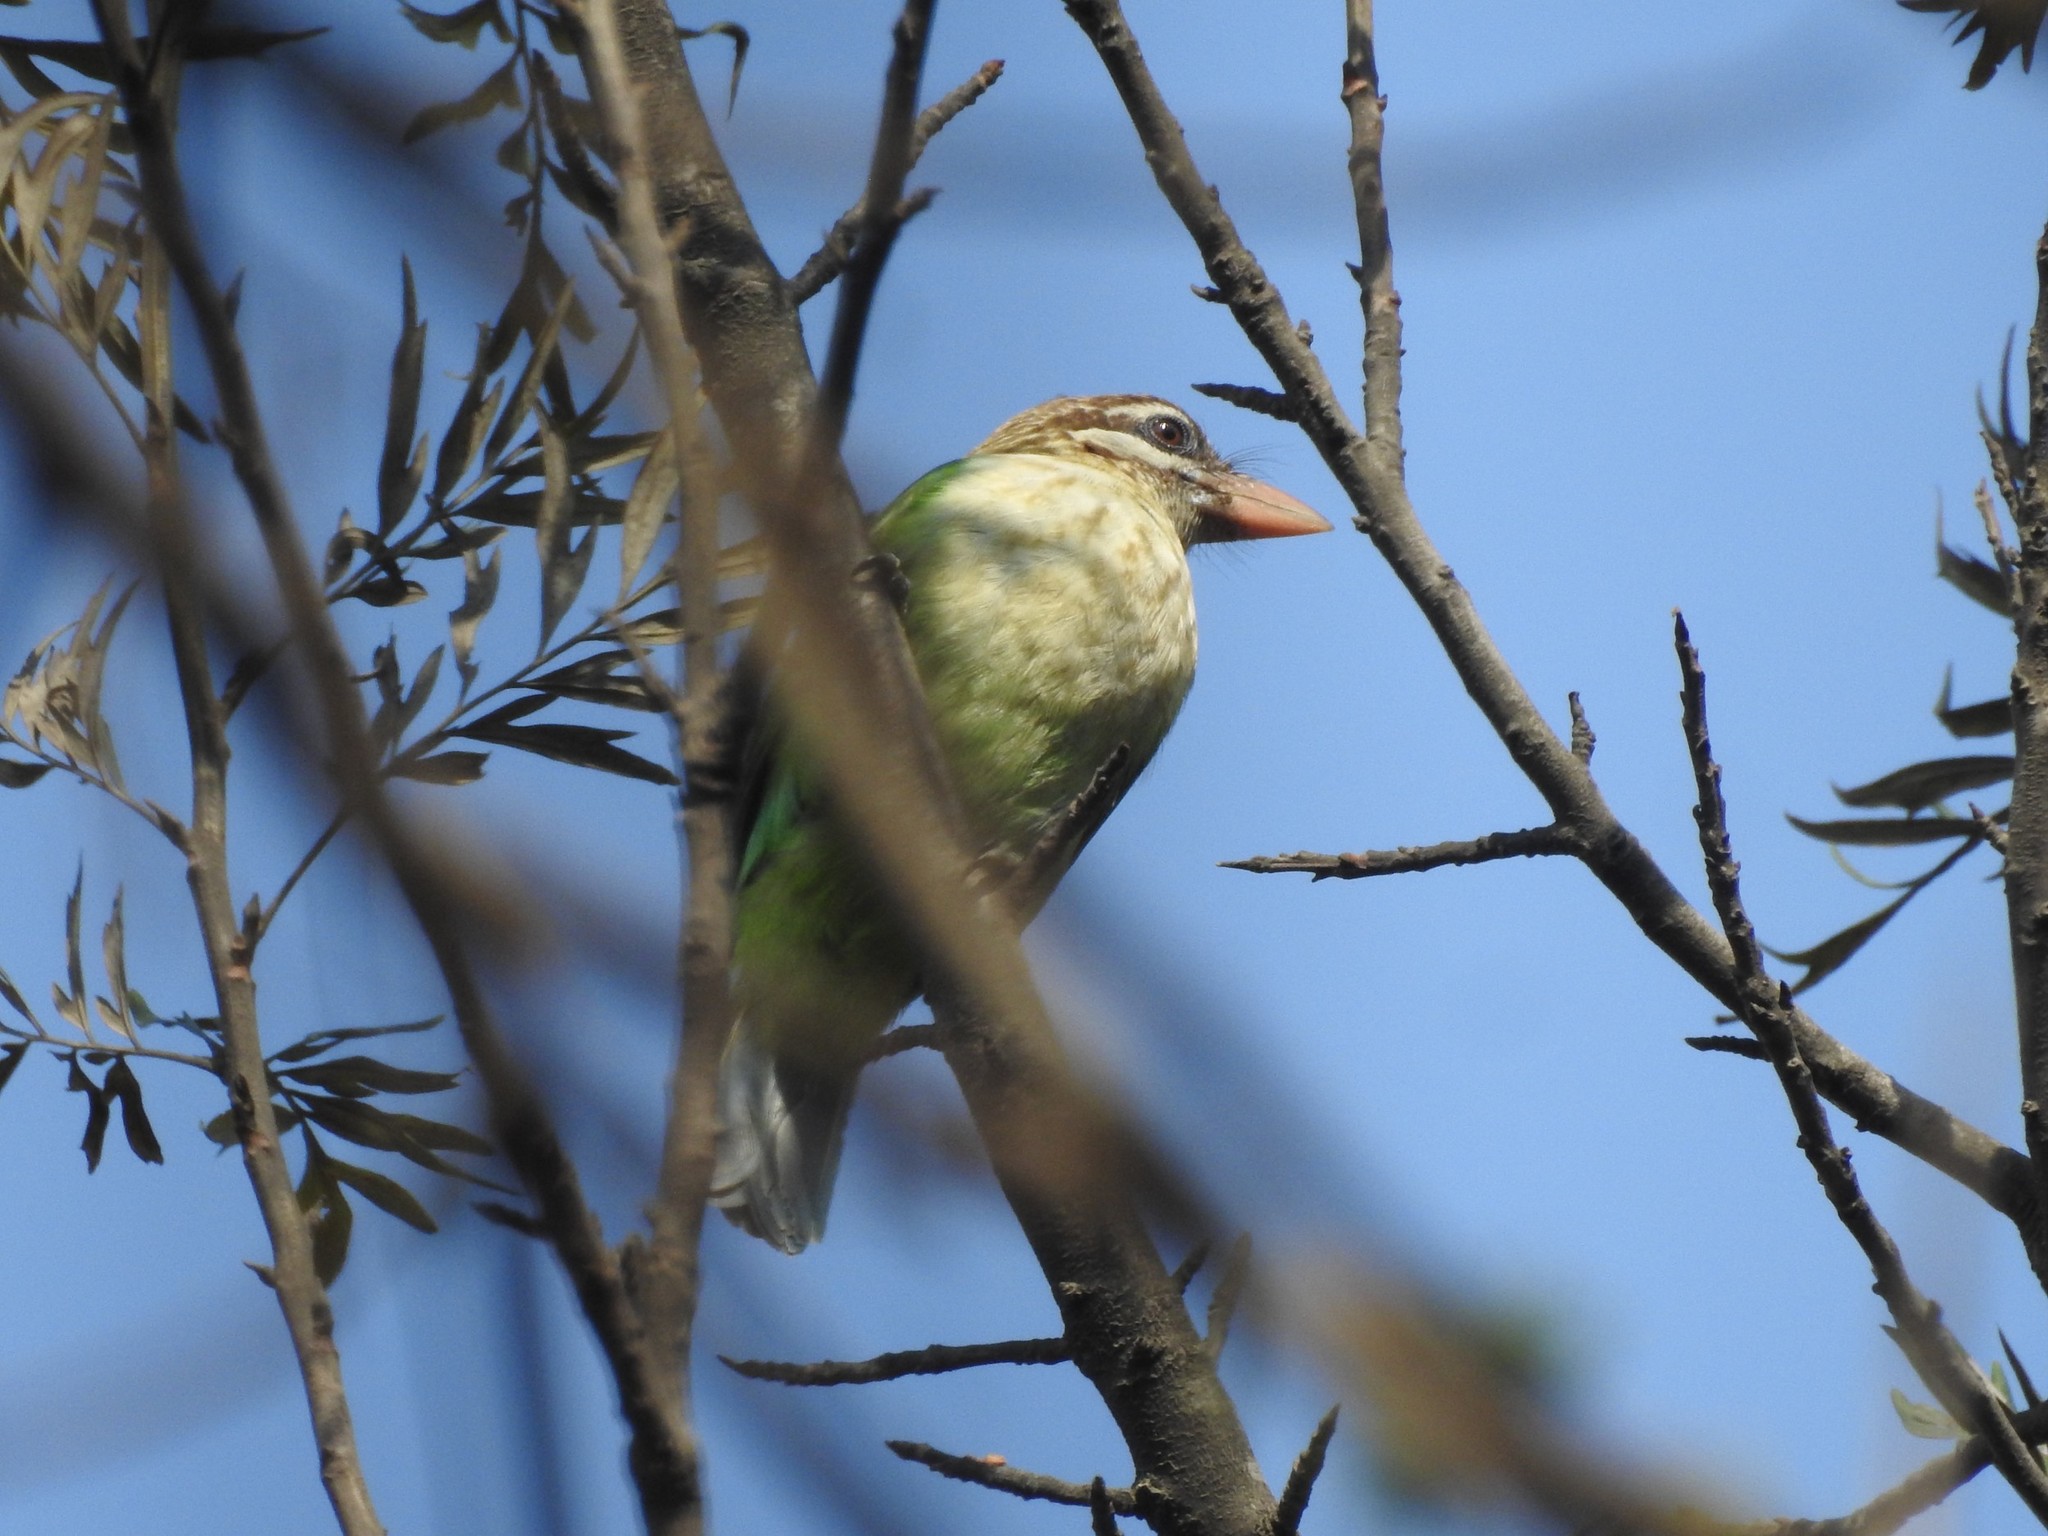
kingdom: Animalia
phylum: Chordata
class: Aves
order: Piciformes
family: Megalaimidae
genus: Psilopogon
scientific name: Psilopogon viridis
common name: White-cheeked barbet
